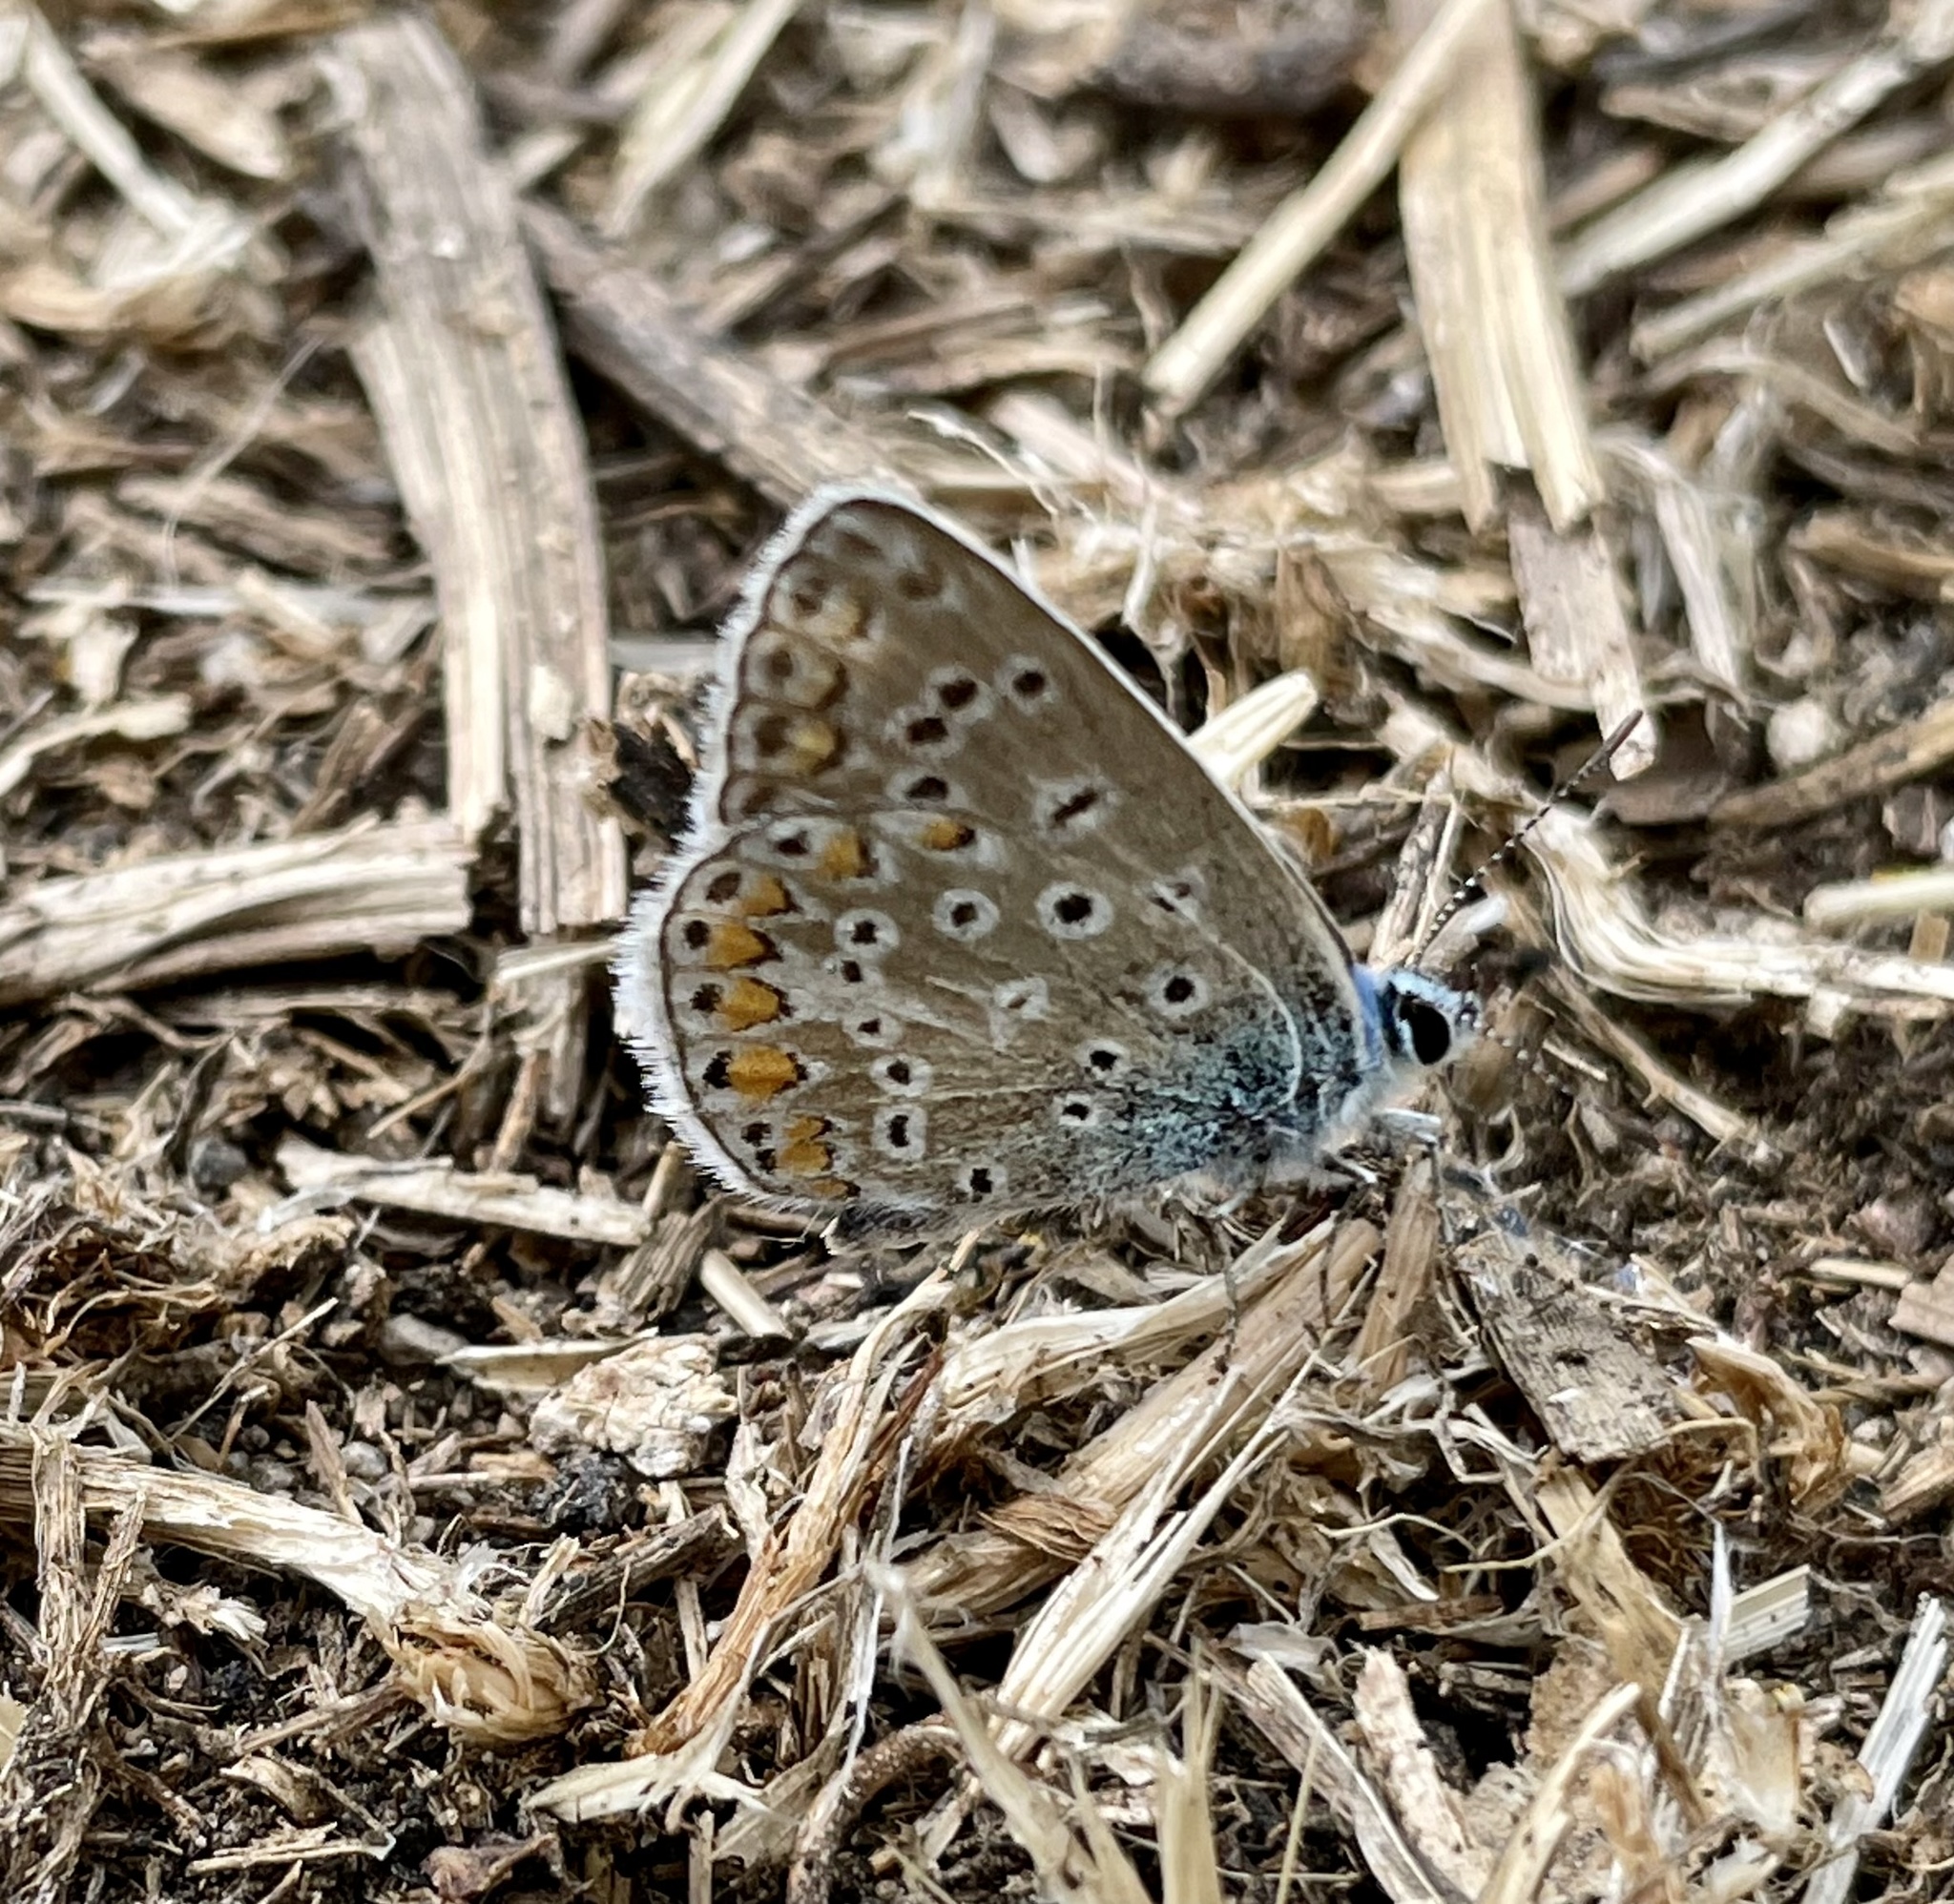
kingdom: Animalia
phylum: Arthropoda
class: Insecta
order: Lepidoptera
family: Lycaenidae
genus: Polyommatus
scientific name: Polyommatus icarus
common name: Common blue
